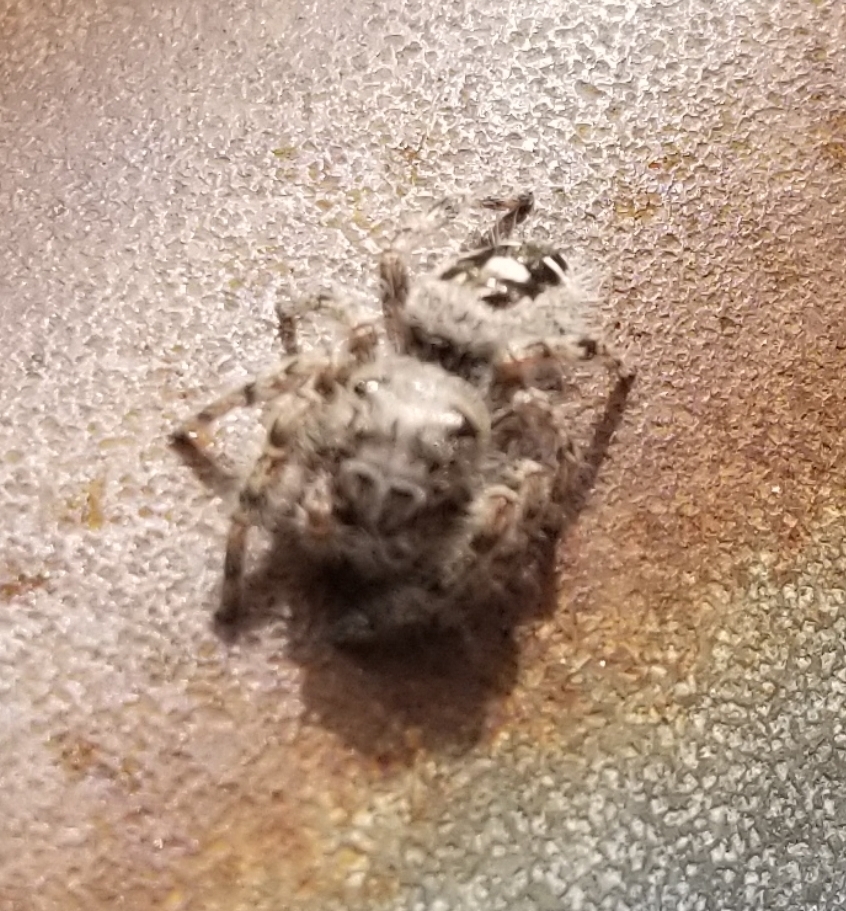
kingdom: Animalia
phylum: Arthropoda
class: Arachnida
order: Araneae
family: Salticidae
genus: Phidippus
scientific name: Phidippus putnami
